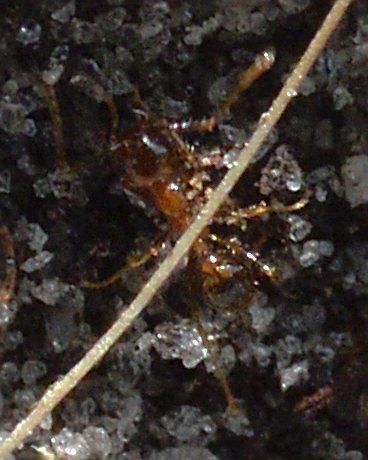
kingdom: Animalia
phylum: Arthropoda
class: Insecta
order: Hymenoptera
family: Formicidae
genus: Pheidole
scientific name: Pheidole megacephala
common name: Bigheaded ant
